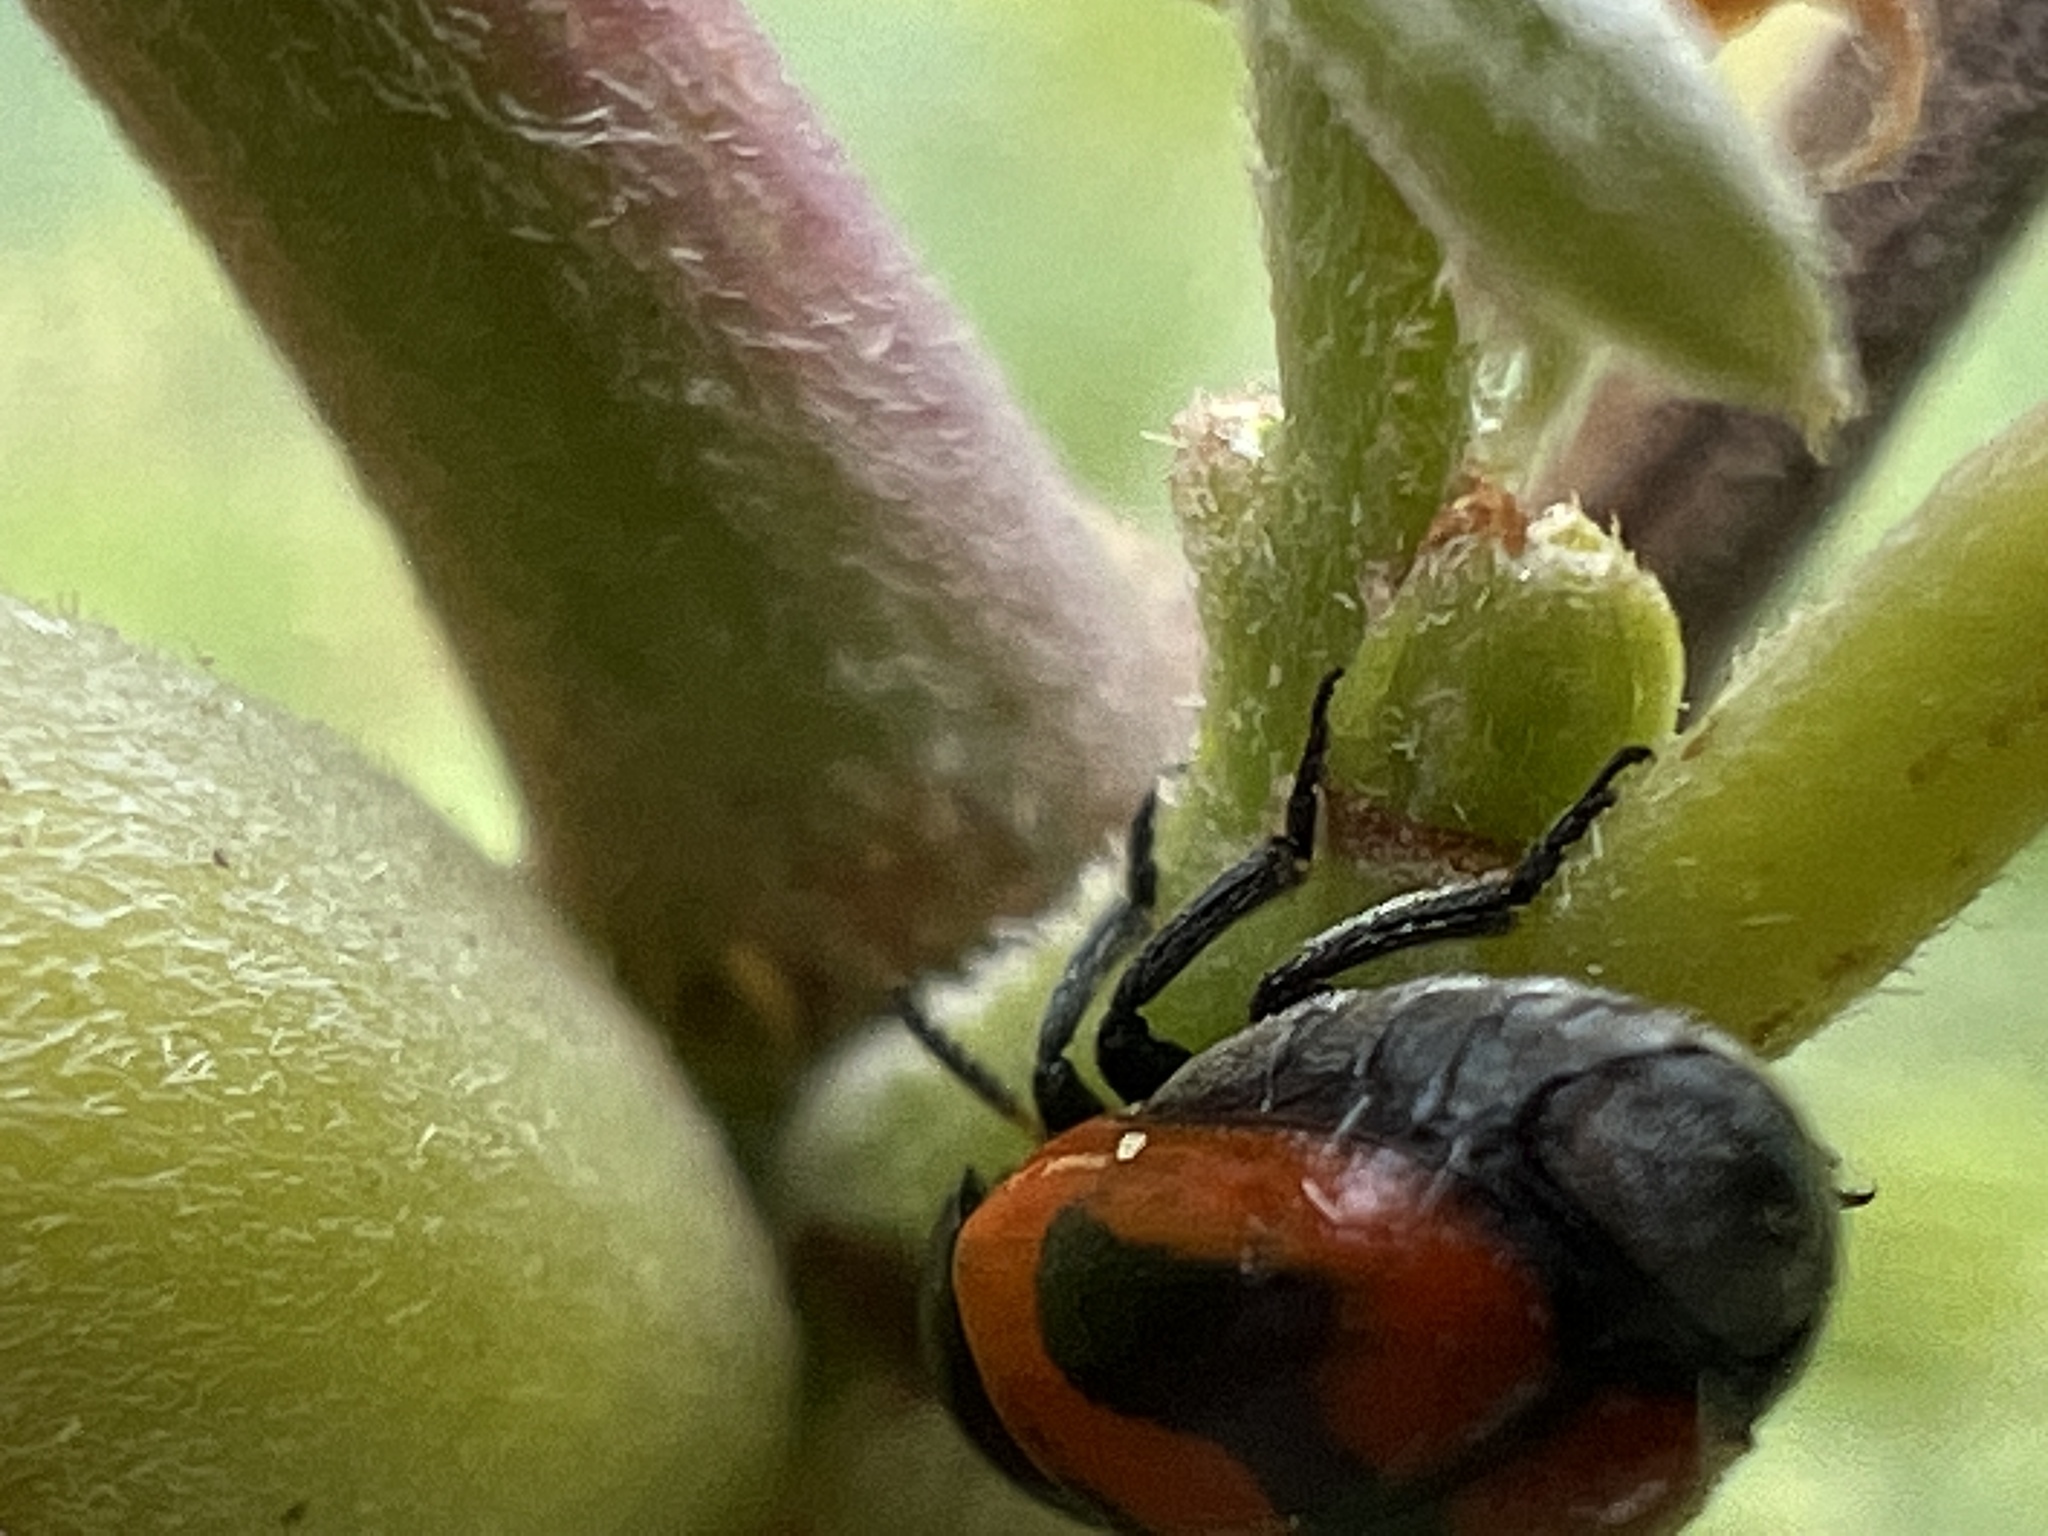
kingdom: Animalia
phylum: Arthropoda
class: Insecta
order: Coleoptera
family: Chrysomelidae
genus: Temnodachrys
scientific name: Temnodachrys
